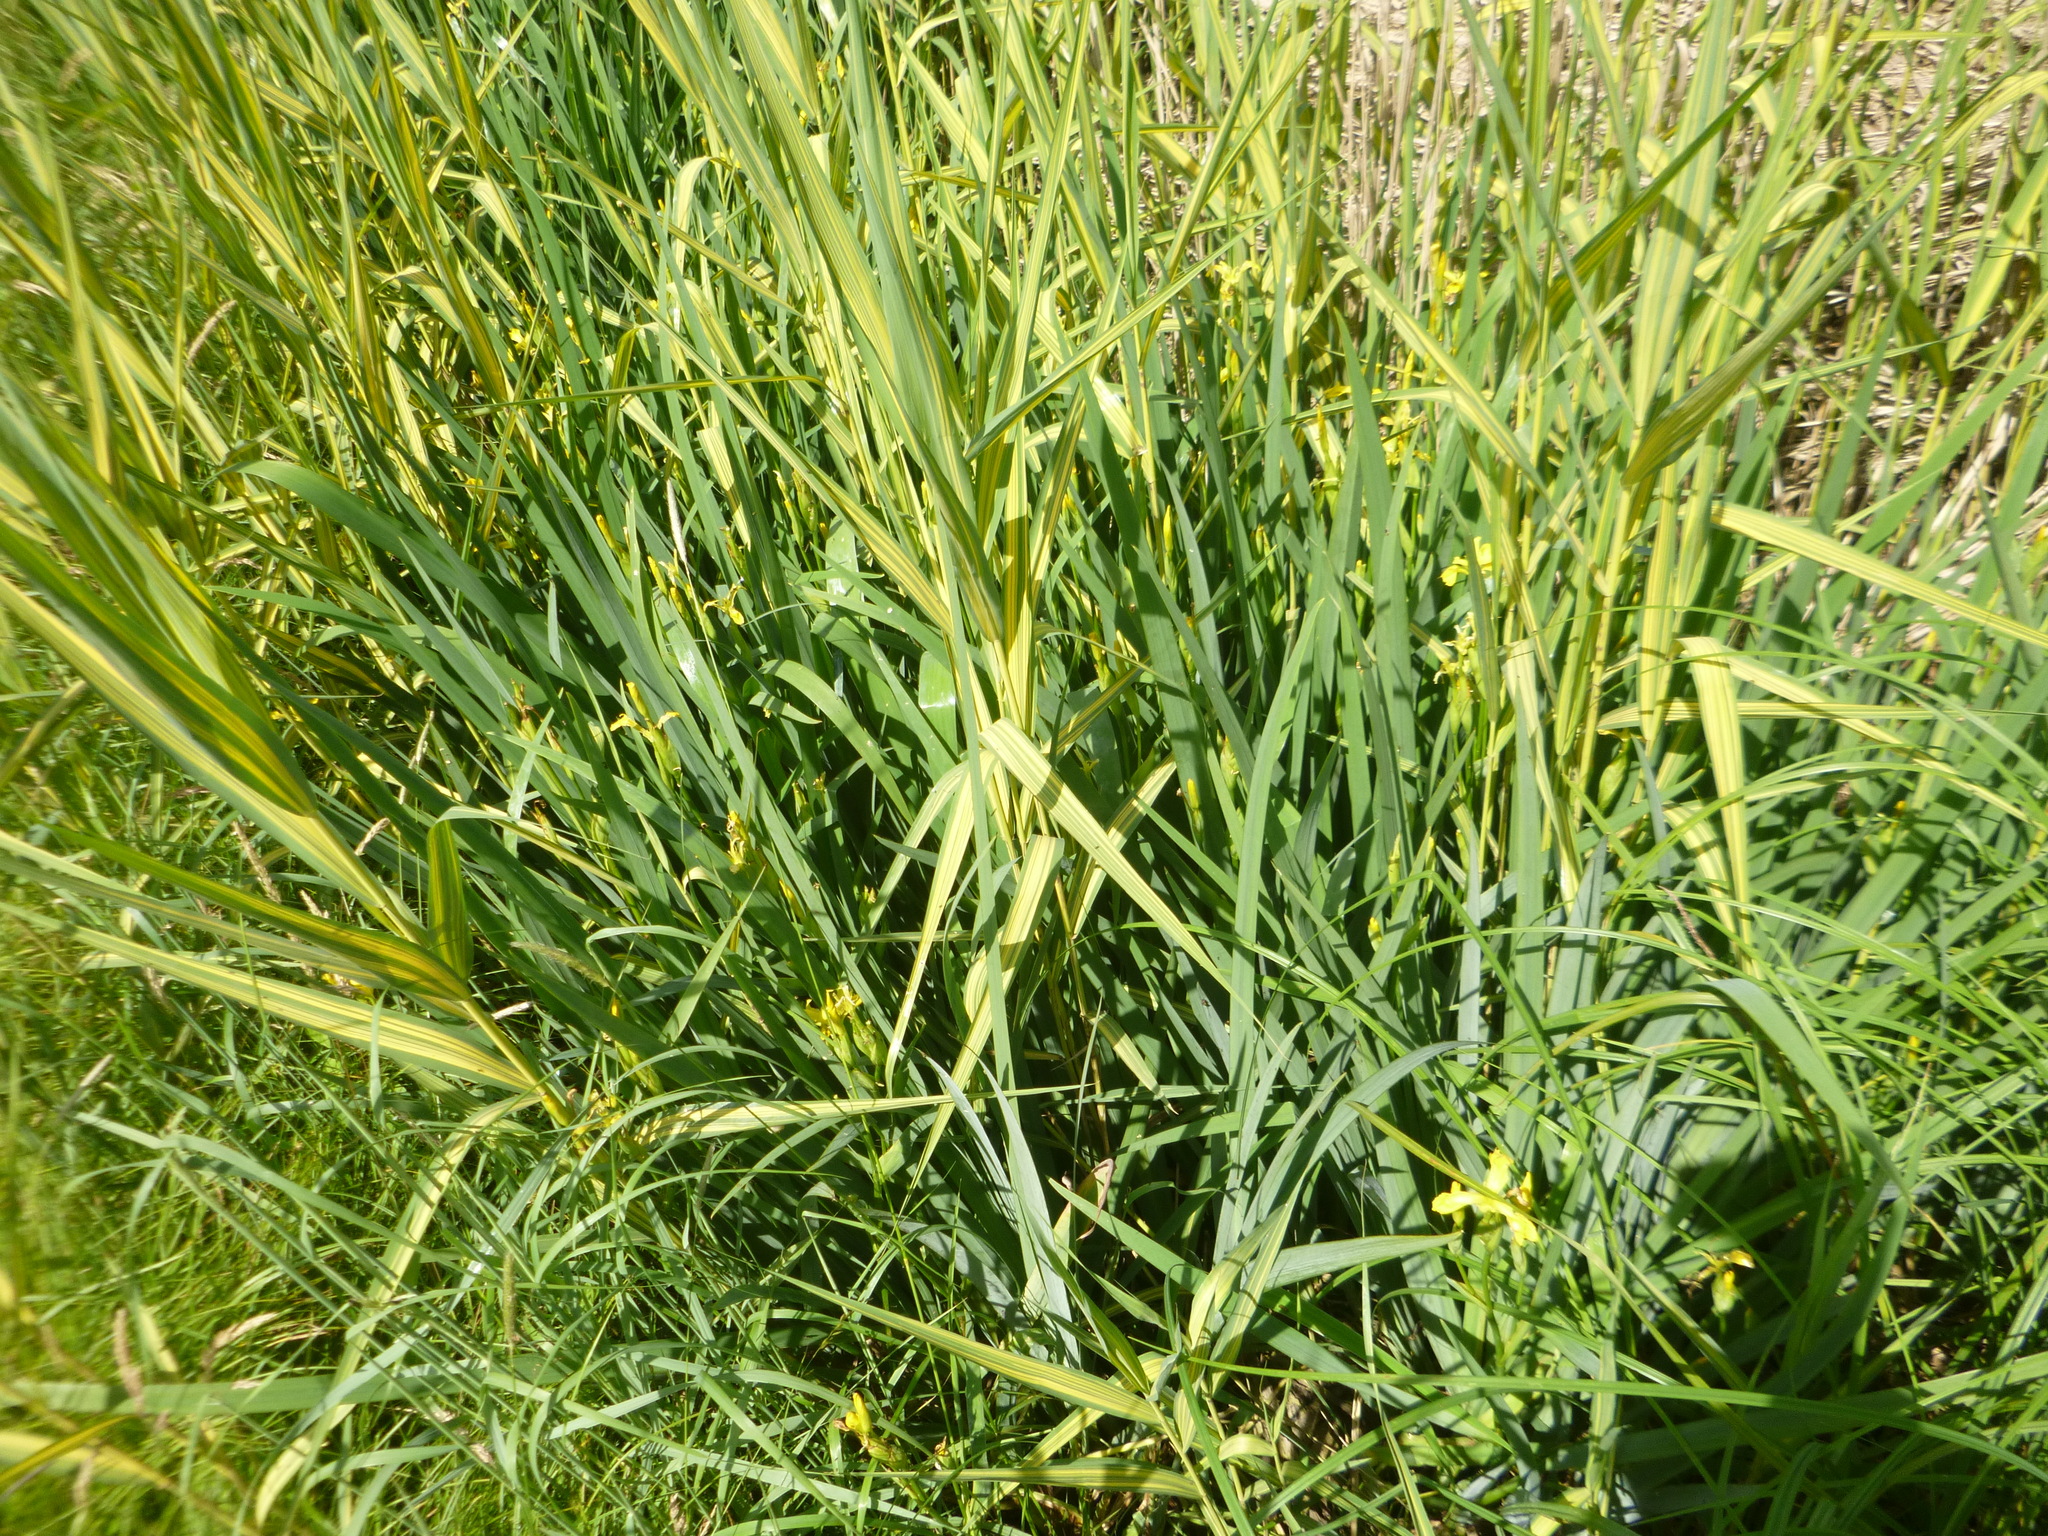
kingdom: Plantae
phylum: Tracheophyta
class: Liliopsida
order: Asparagales
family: Iridaceae
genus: Iris
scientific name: Iris pseudacorus
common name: Yellow flag
